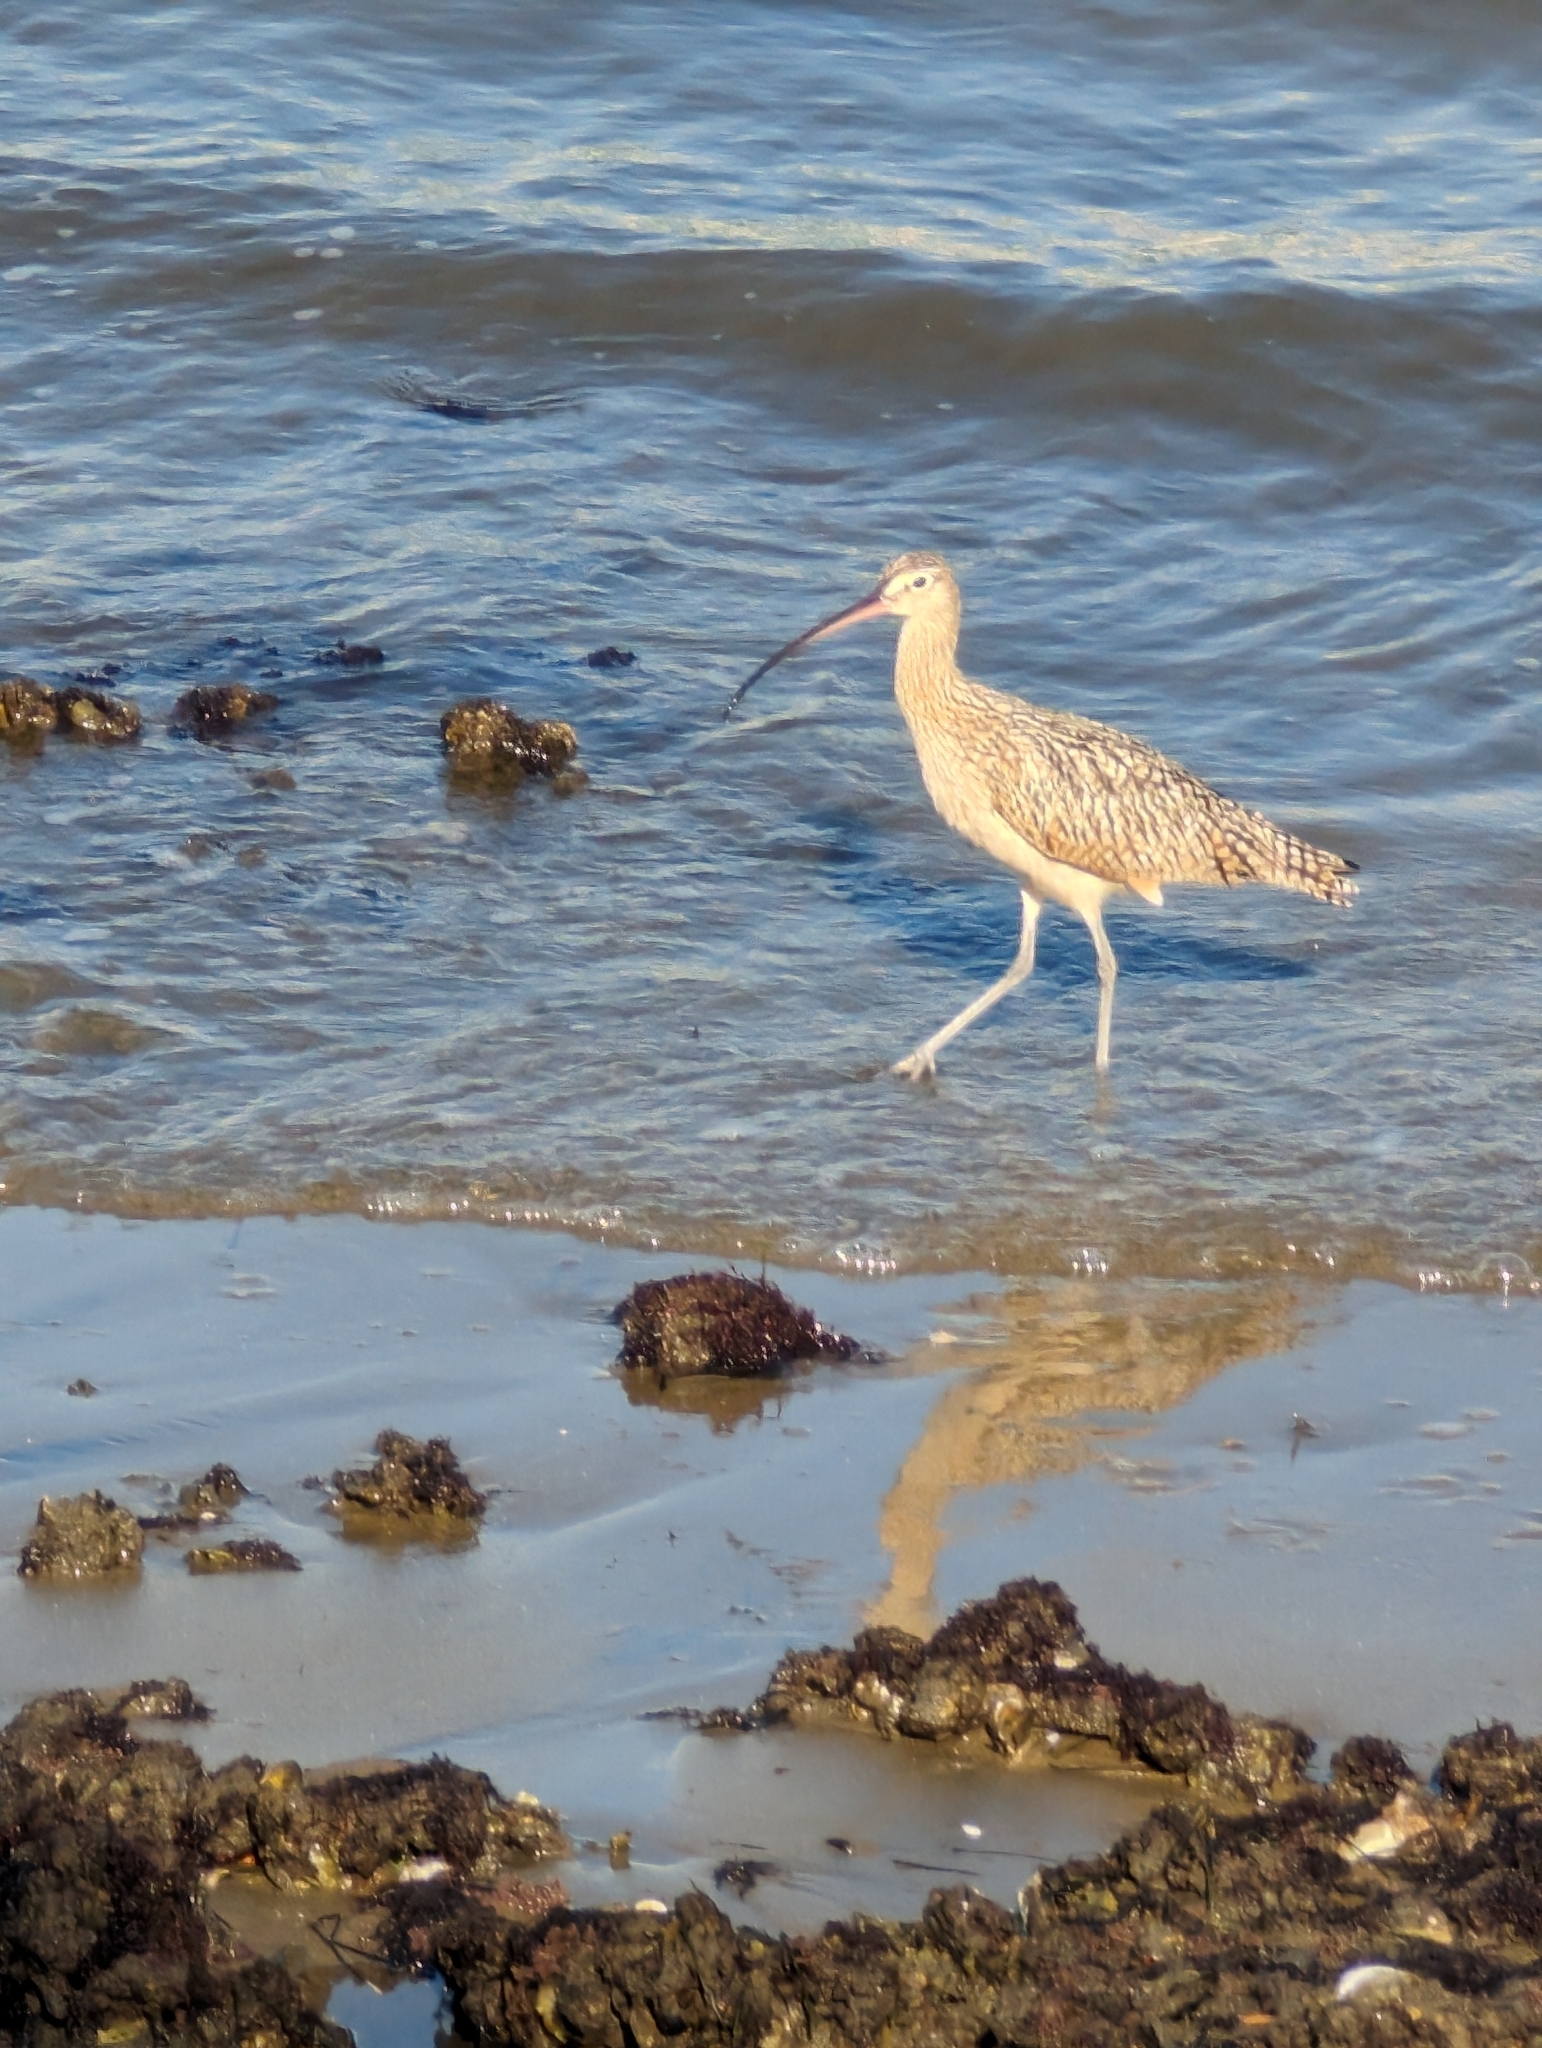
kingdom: Animalia
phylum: Chordata
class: Aves
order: Charadriiformes
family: Scolopacidae
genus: Numenius
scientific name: Numenius phaeopus
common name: Whimbrel
